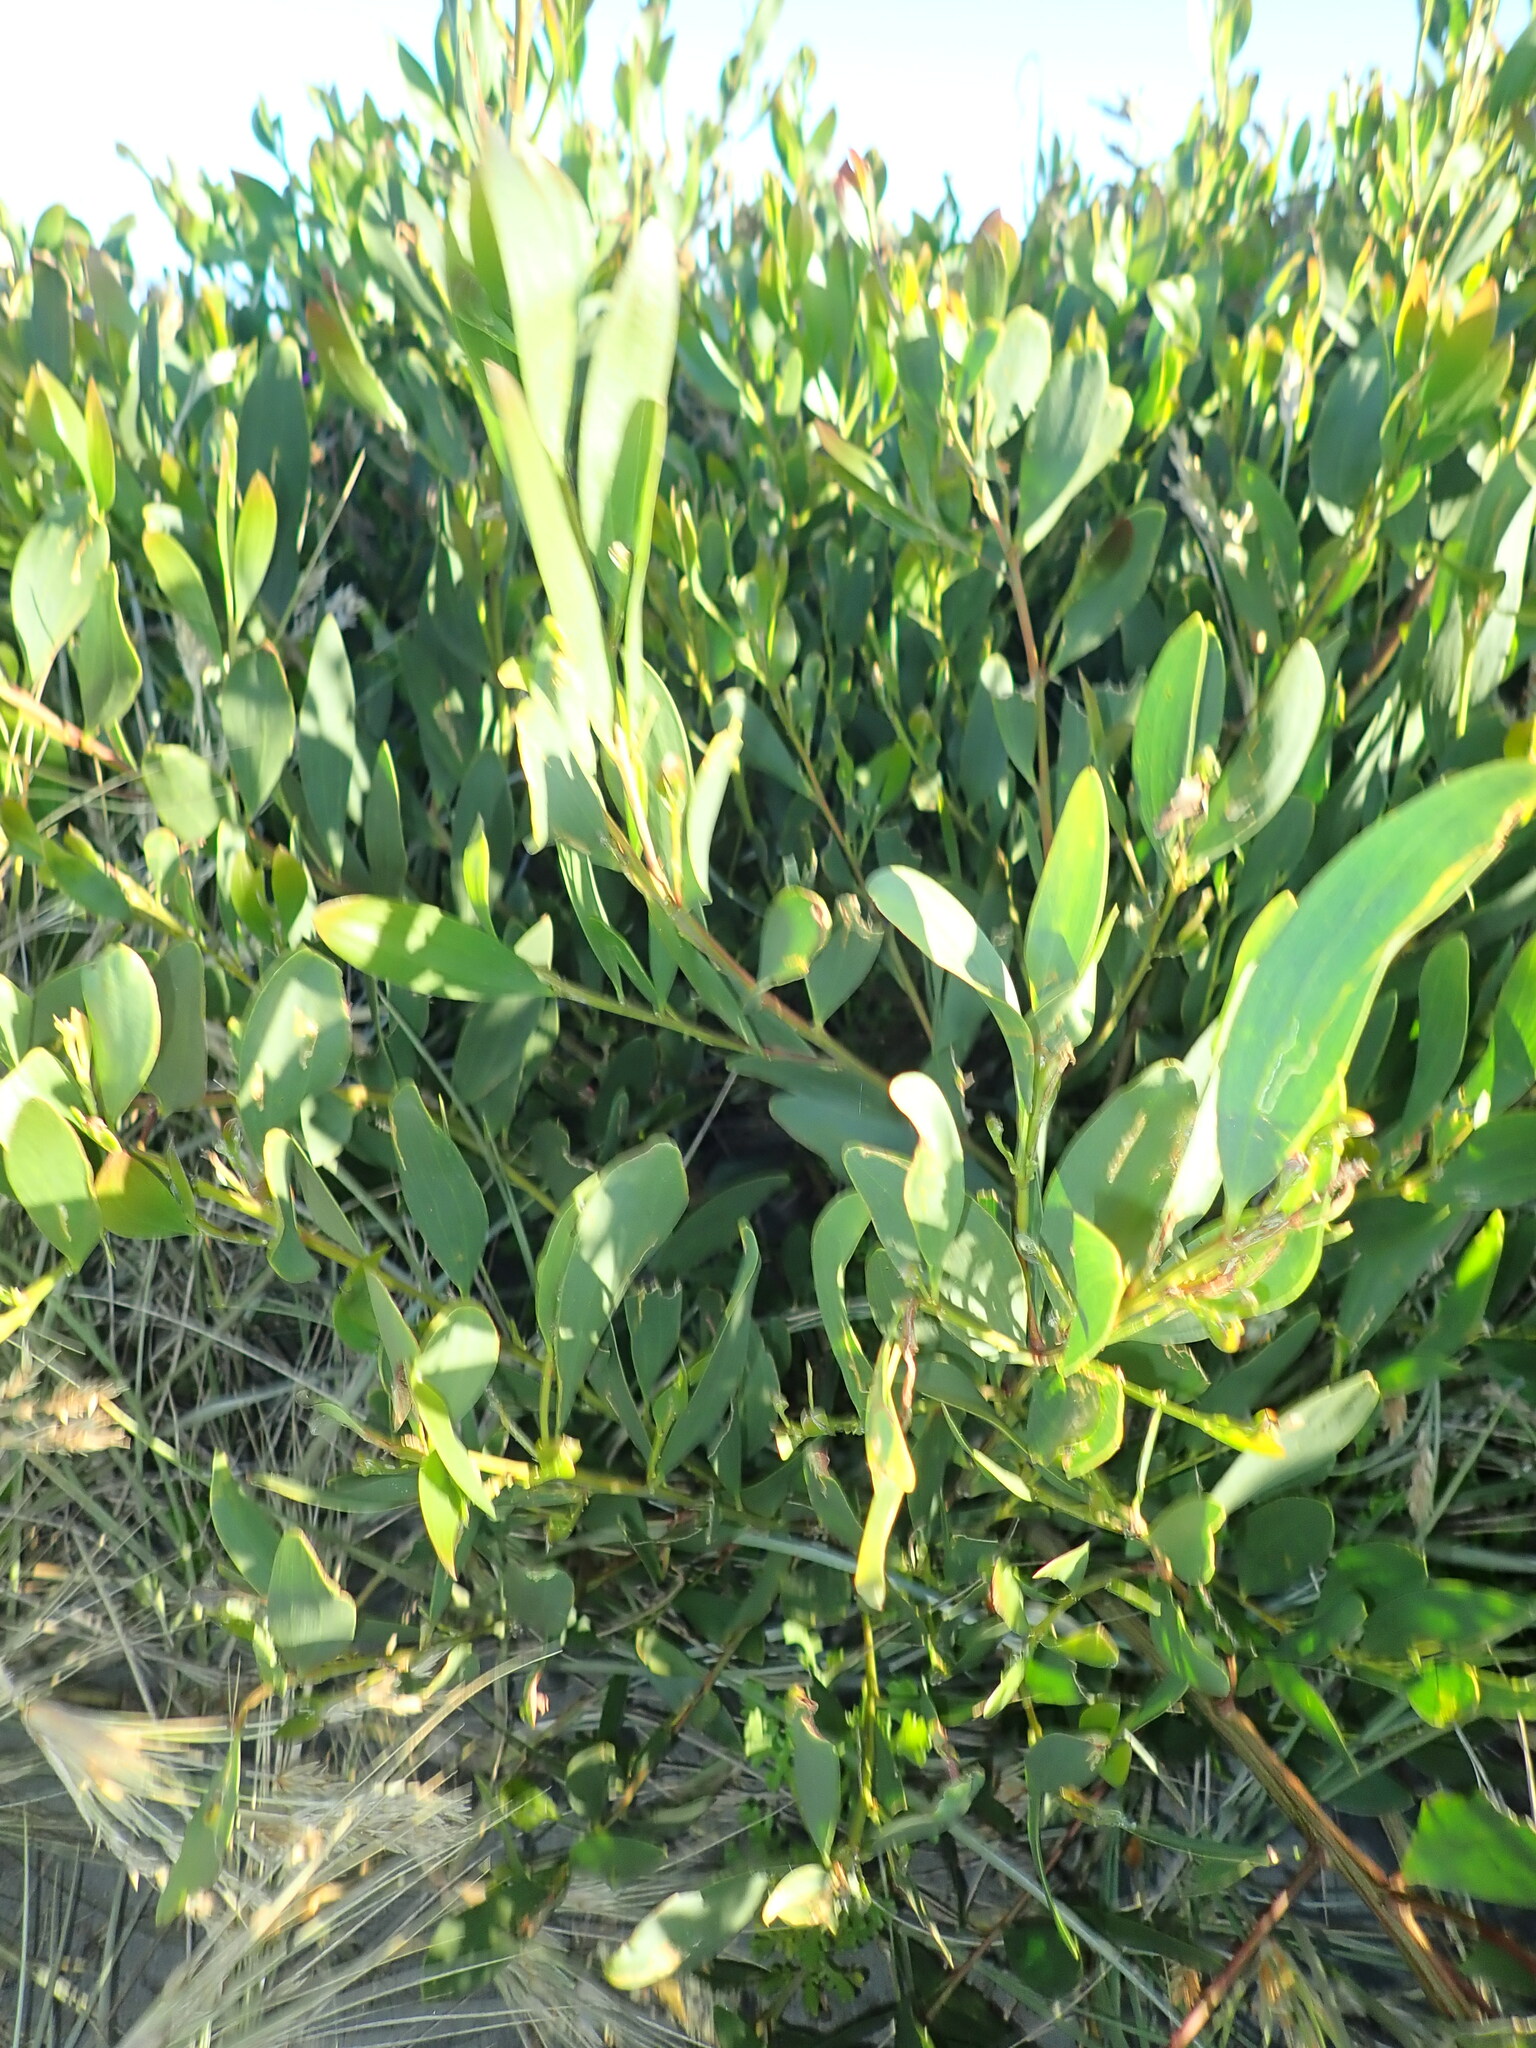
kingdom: Plantae
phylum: Tracheophyta
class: Magnoliopsida
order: Fabales
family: Fabaceae
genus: Acacia
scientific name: Acacia longifolia
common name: Sydney golden wattle
